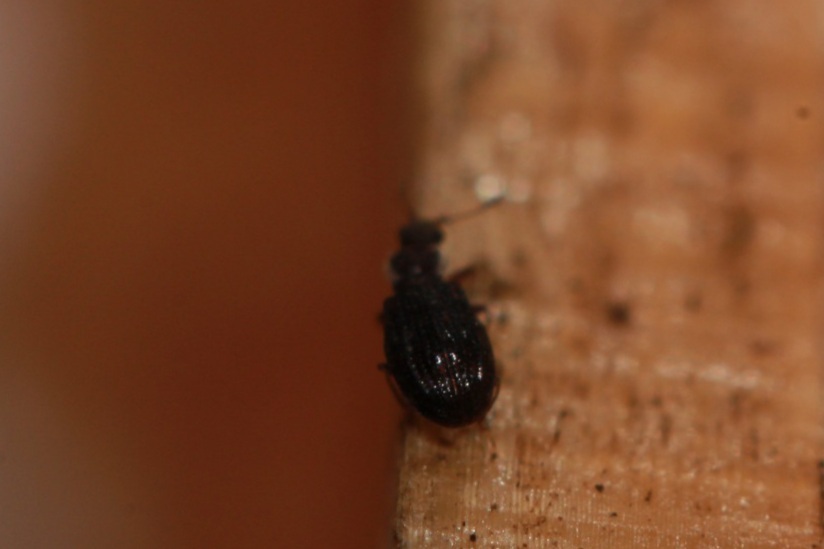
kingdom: Animalia
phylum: Arthropoda
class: Insecta
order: Coleoptera
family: Latridiidae
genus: Cartodere
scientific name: Cartodere nodifer
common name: Humpbacked minute scavenger beetle
